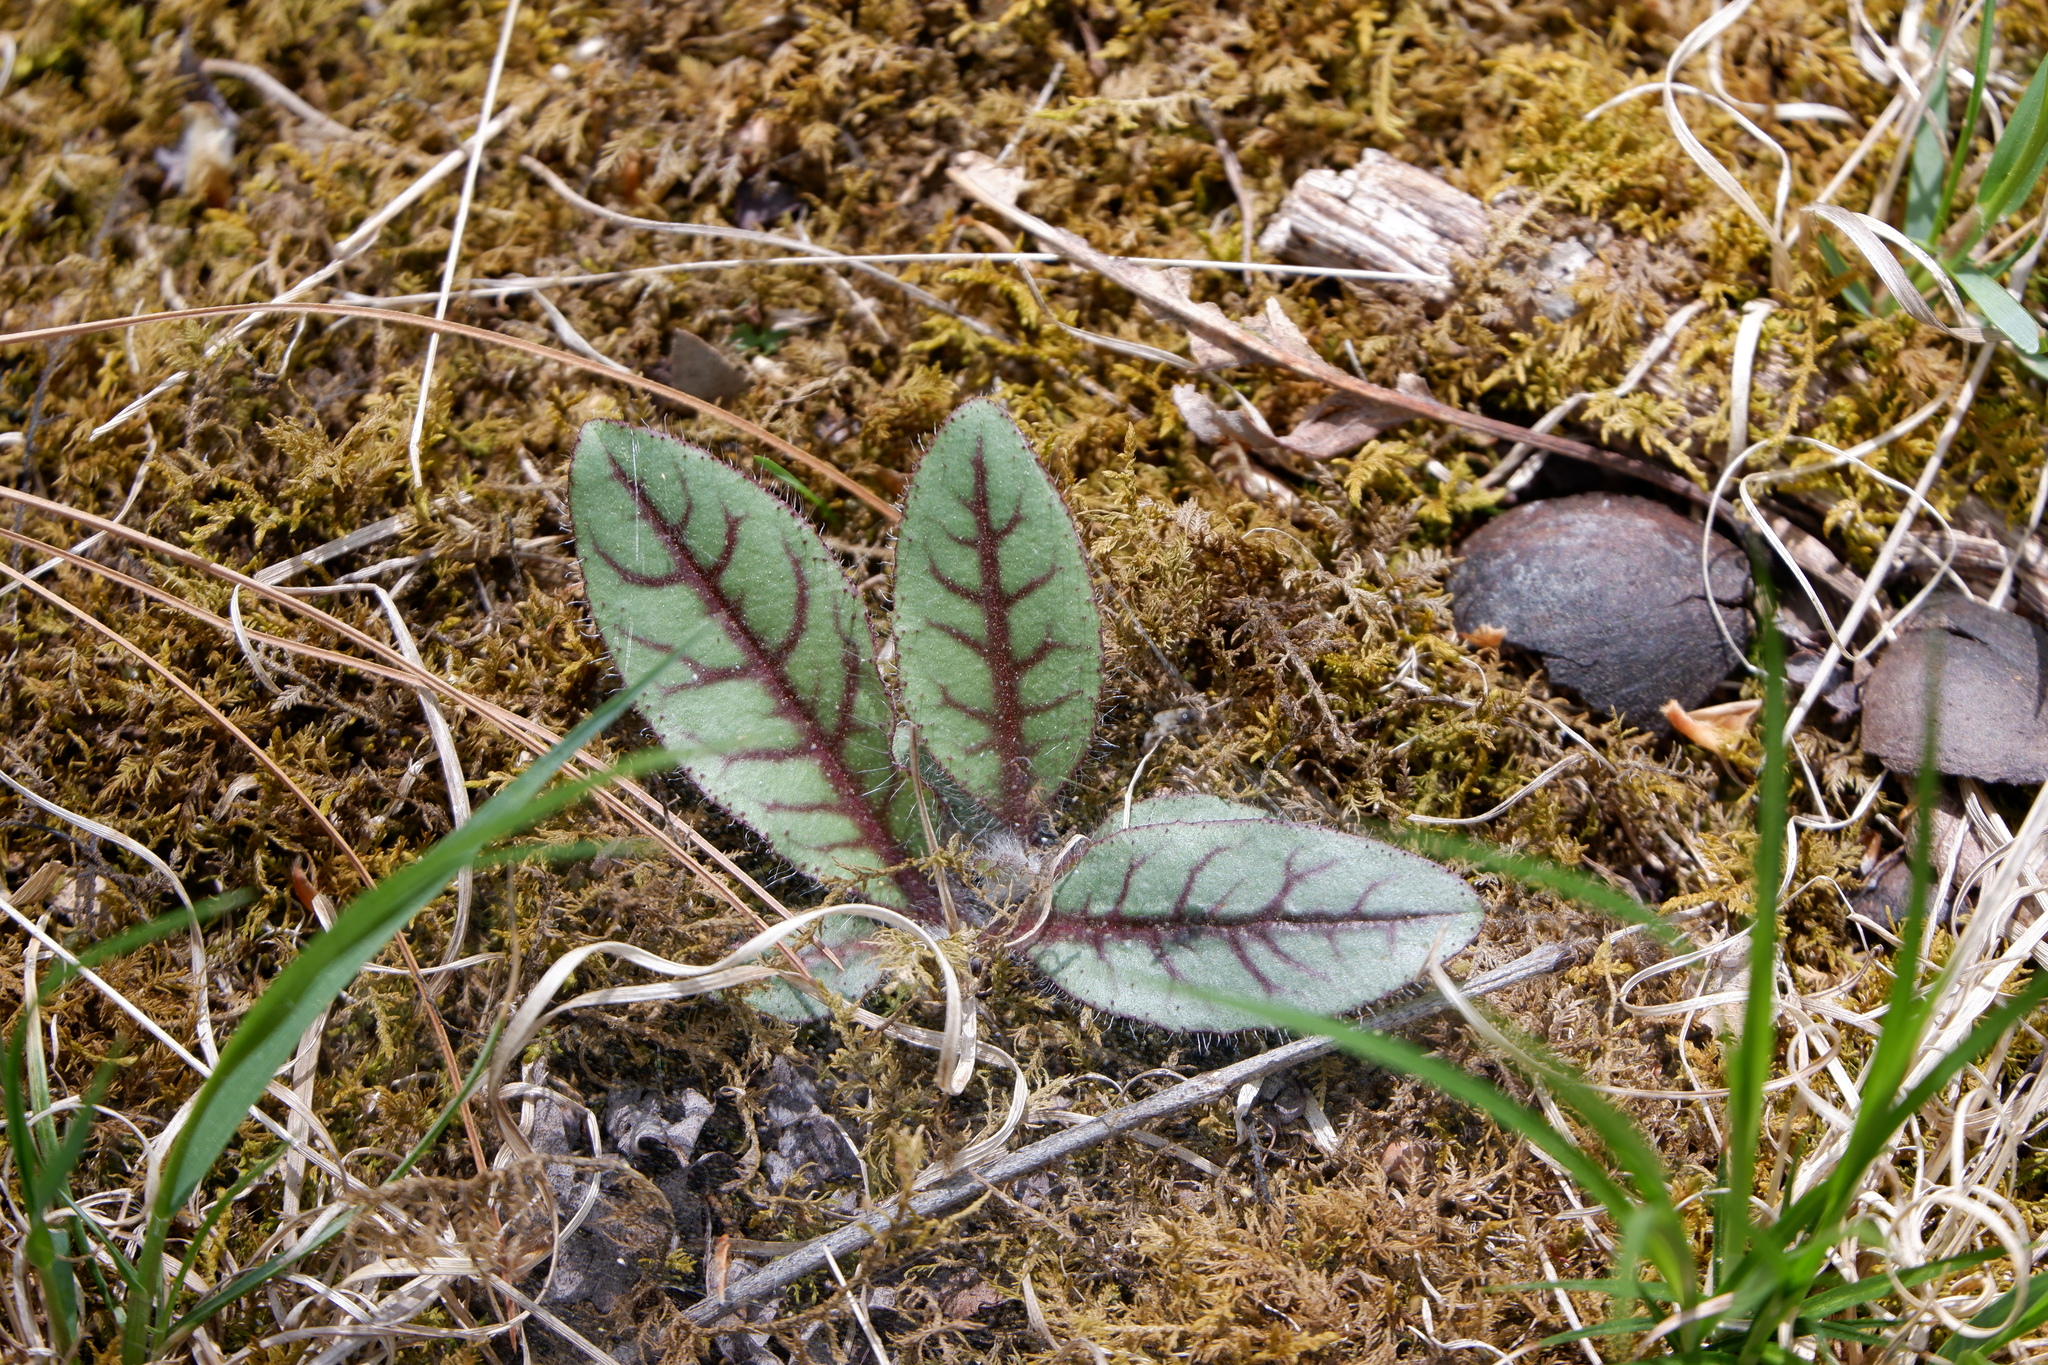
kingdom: Plantae
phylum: Tracheophyta
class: Magnoliopsida
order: Asterales
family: Asteraceae
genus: Hieracium
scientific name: Hieracium venosum
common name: Rattlesnake hawkweed
